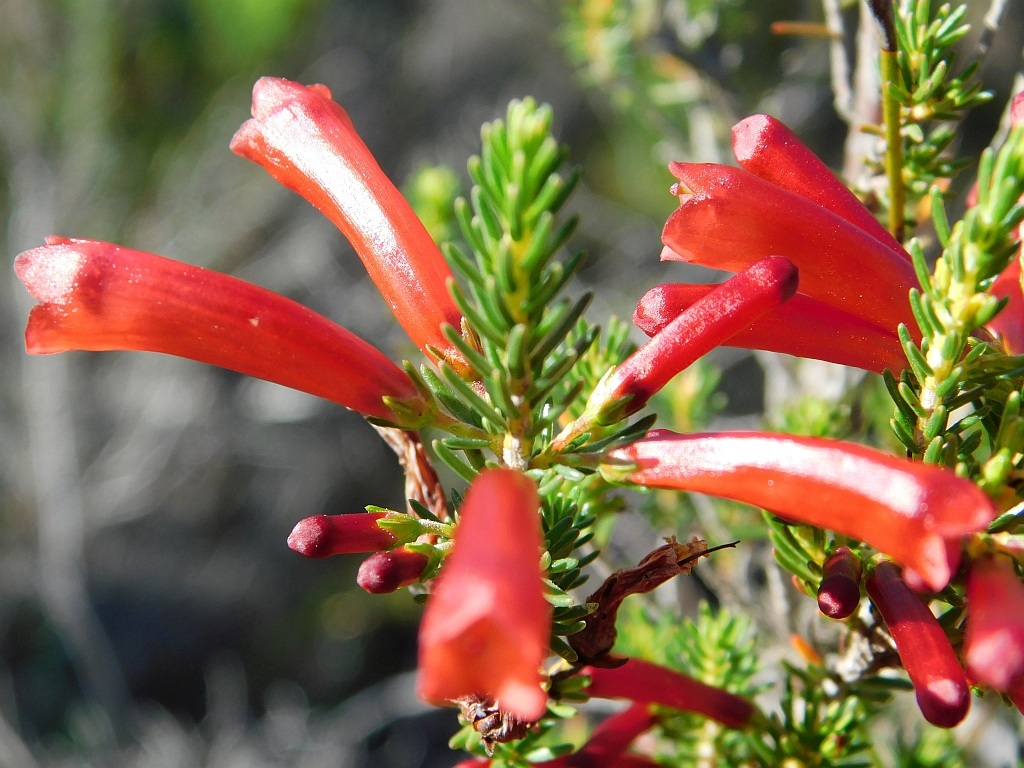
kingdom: Plantae
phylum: Tracheophyta
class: Magnoliopsida
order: Ericales
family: Ericaceae
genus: Erica
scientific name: Erica cruenta
